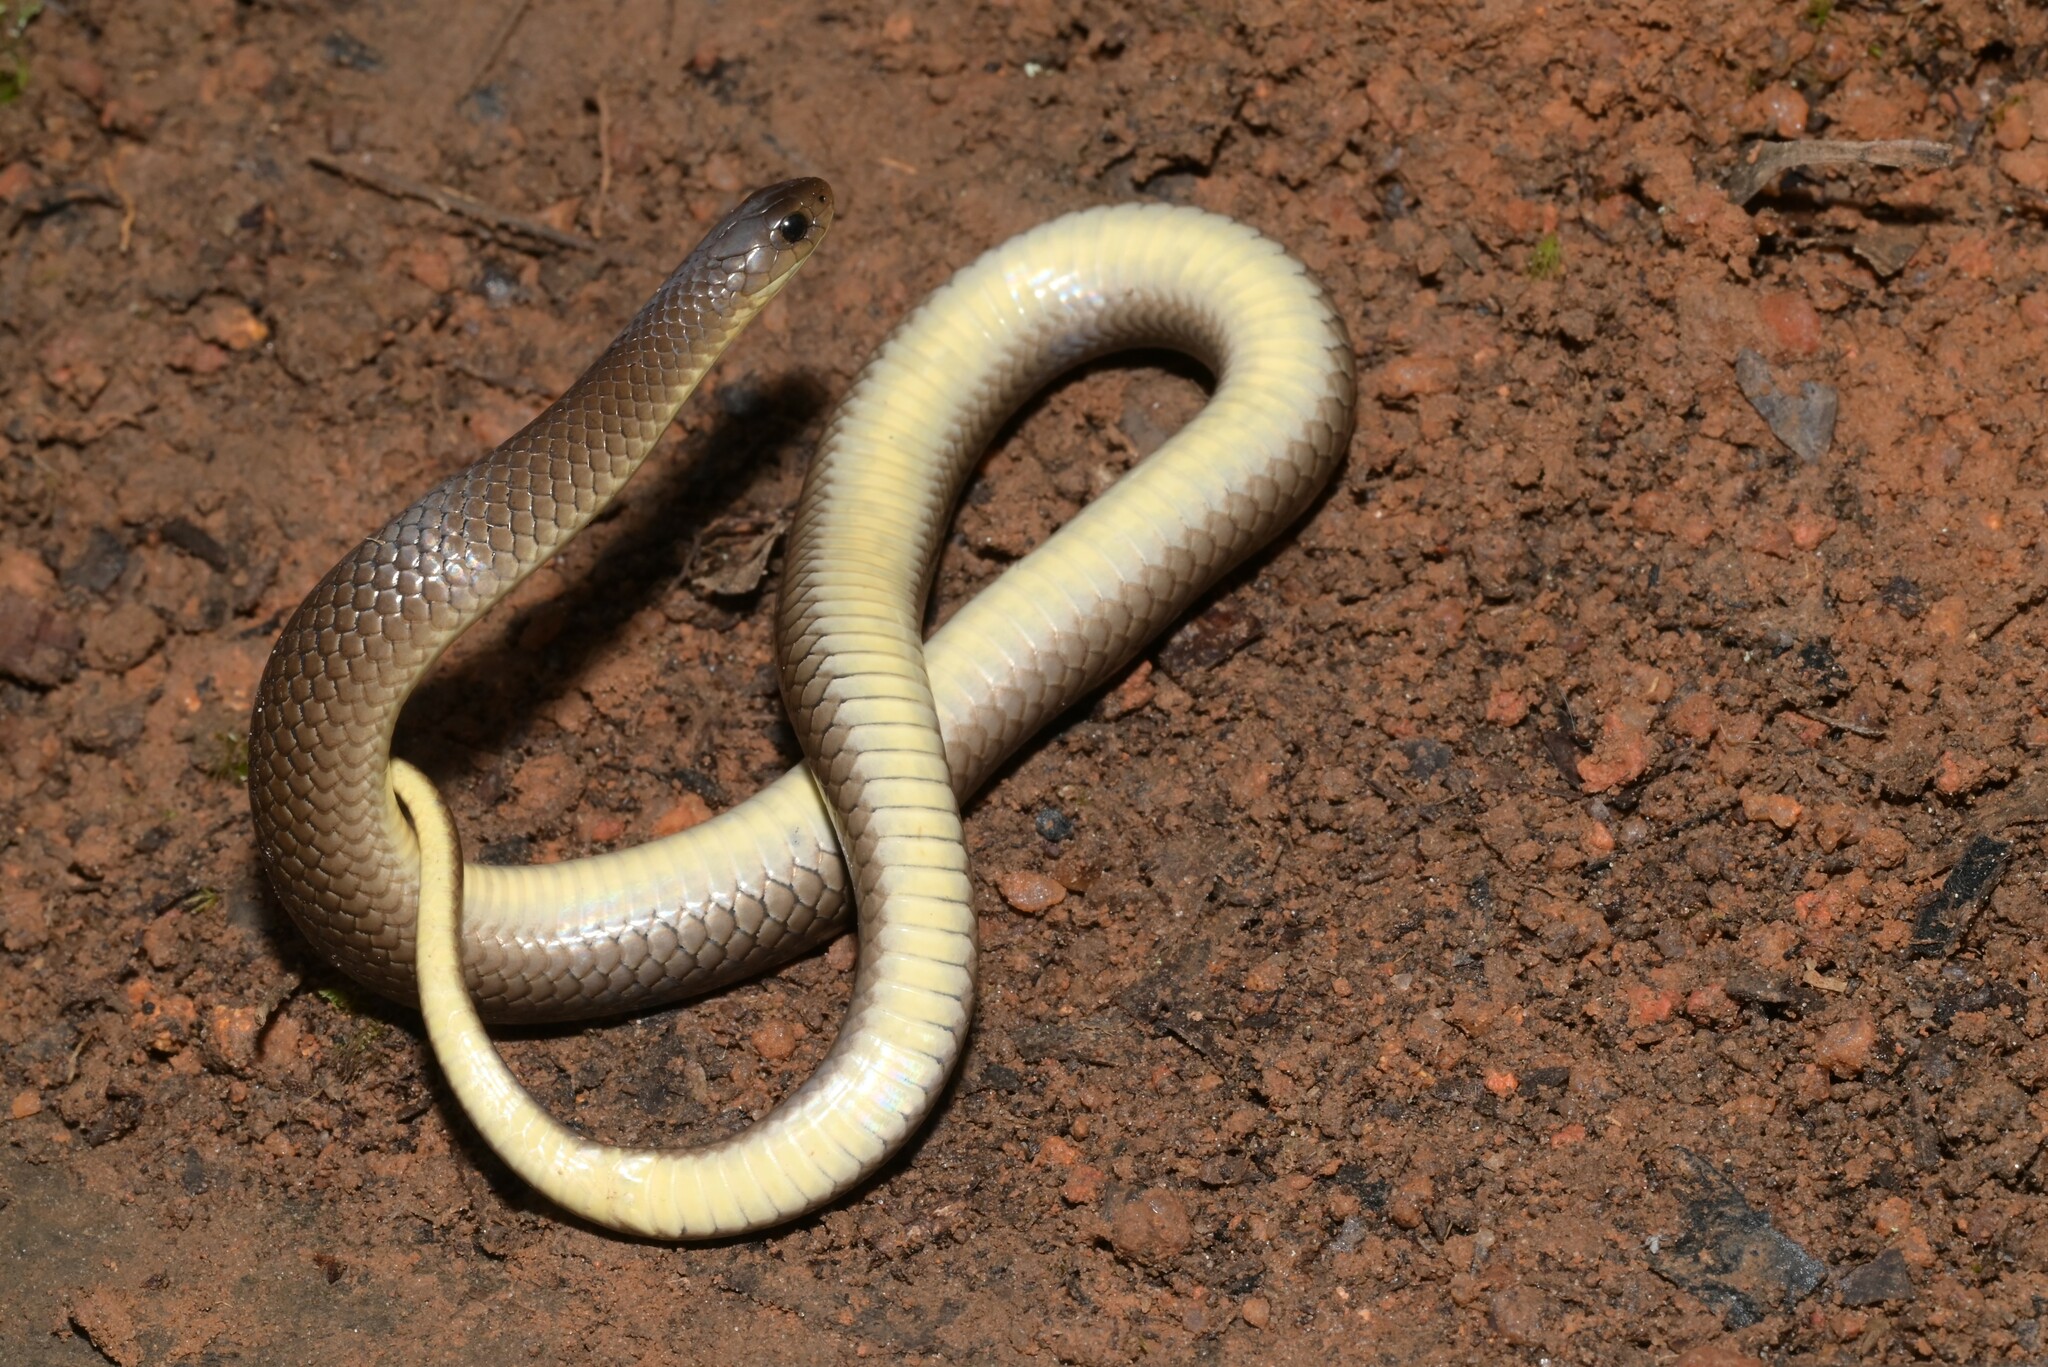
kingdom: Animalia
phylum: Chordata
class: Squamata
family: Pseudoxyrhophiidae
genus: Duberria
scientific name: Duberria shirana
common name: Shire slug eater
